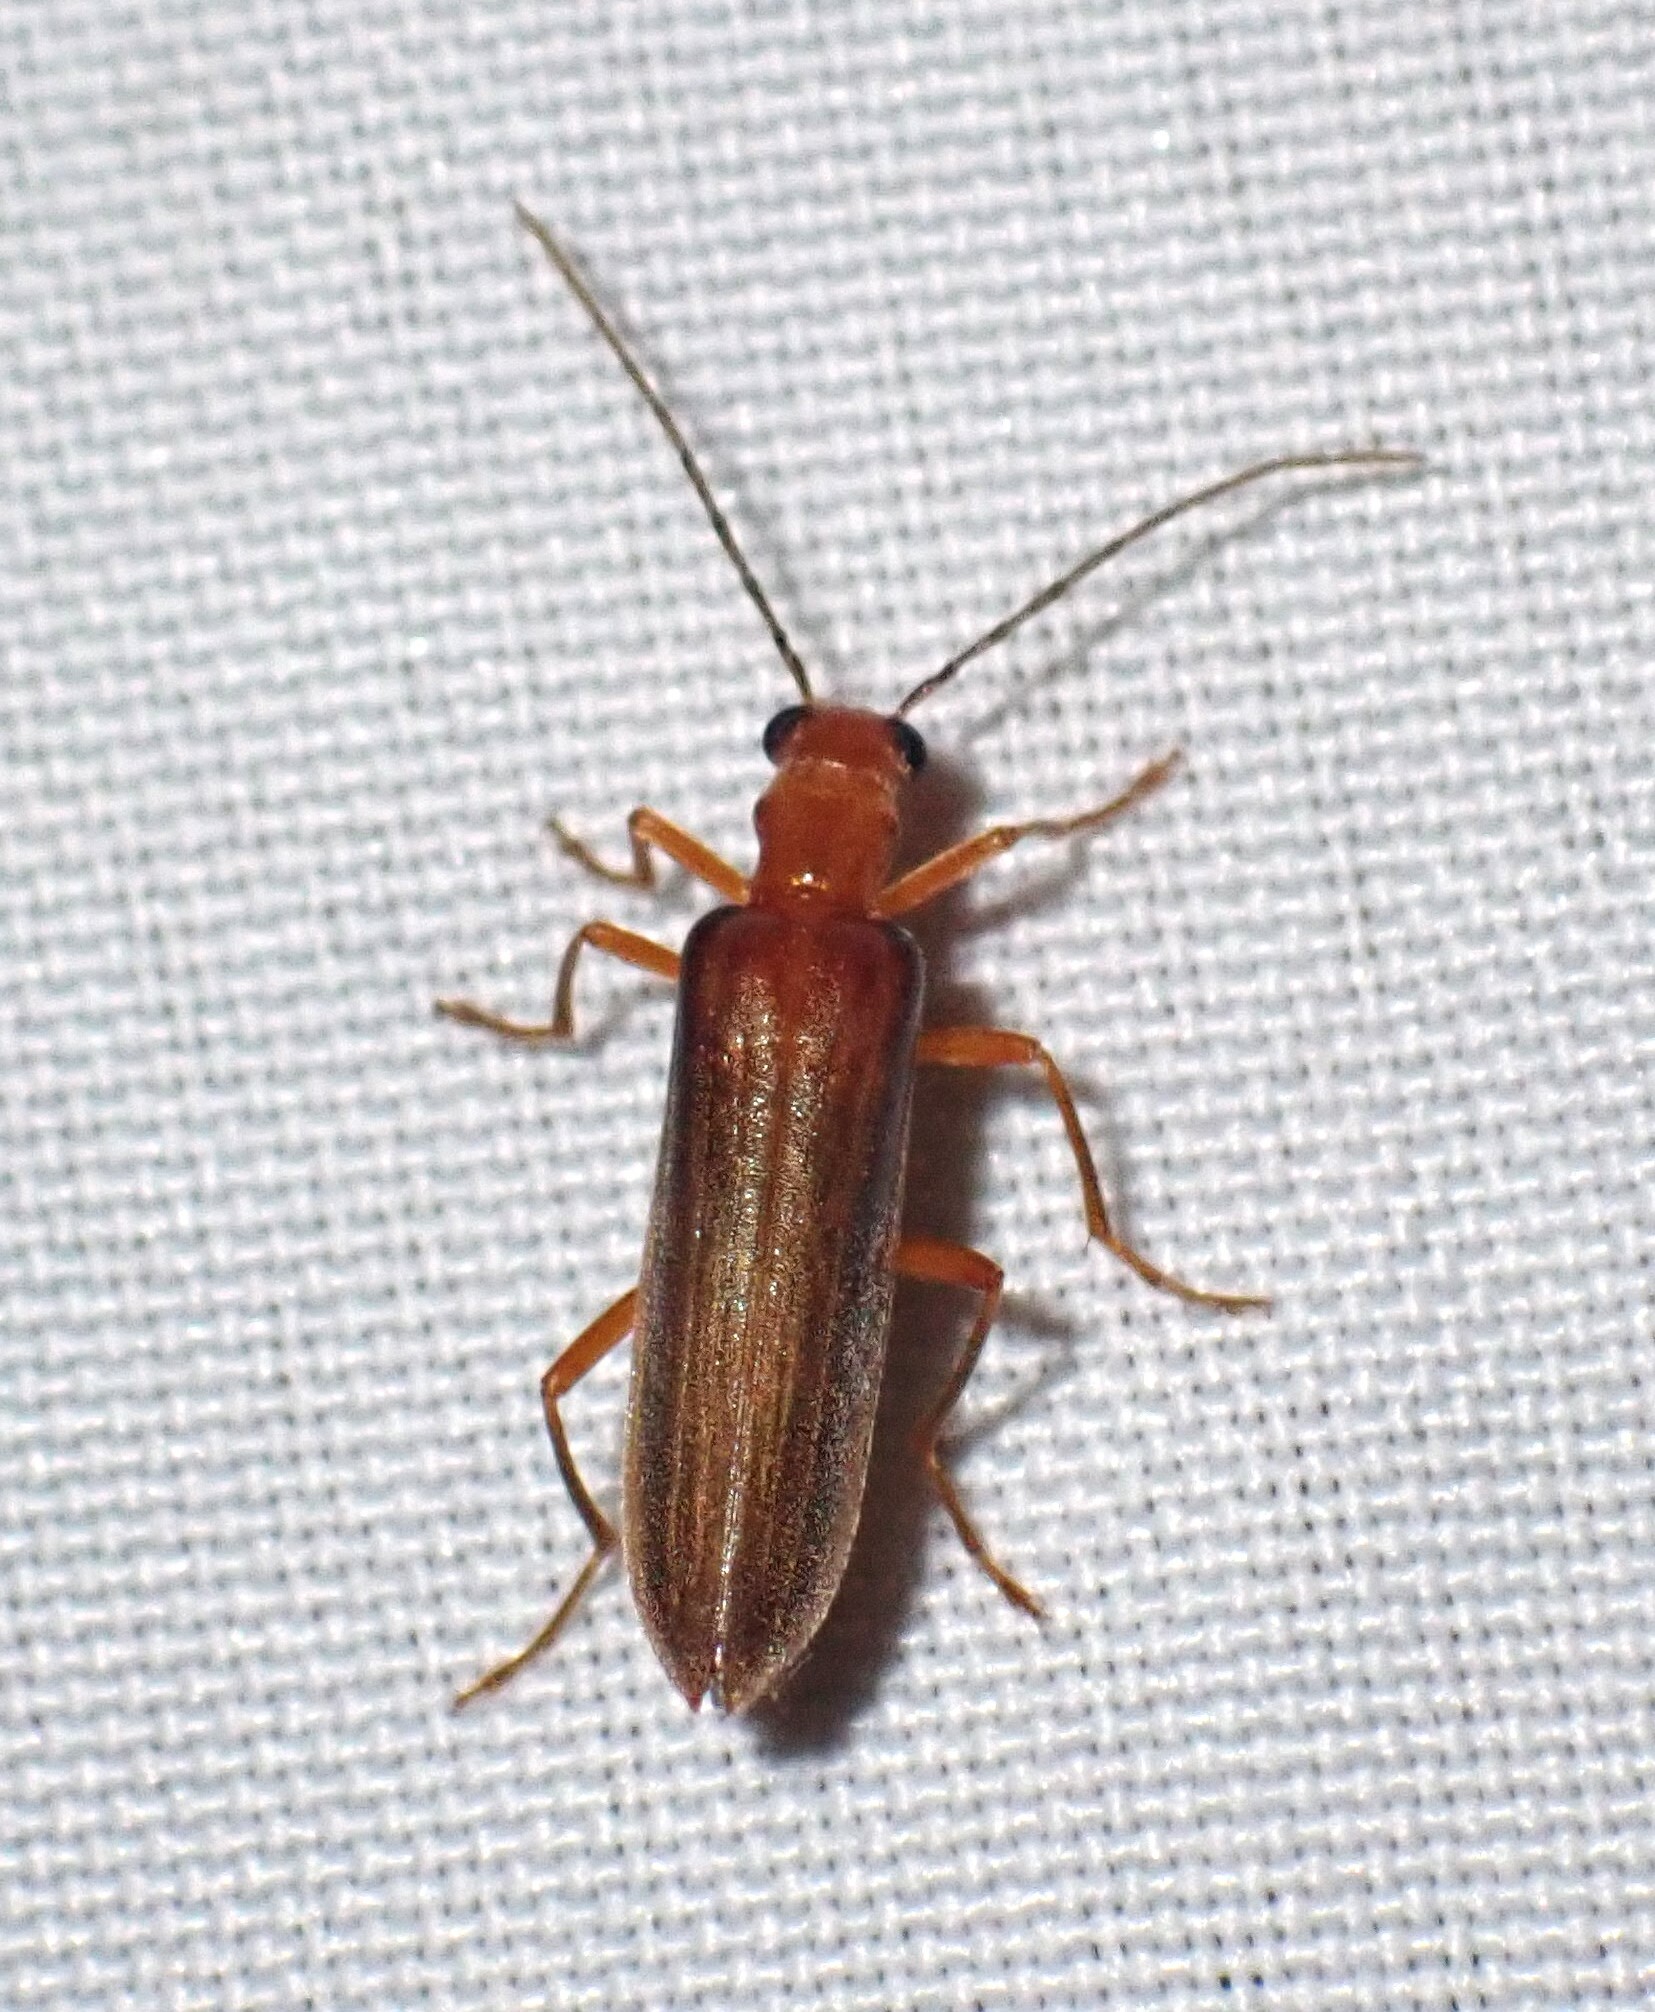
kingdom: Animalia
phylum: Arthropoda
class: Insecta
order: Coleoptera
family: Oedemeridae
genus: Nacerdes
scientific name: Nacerdes
